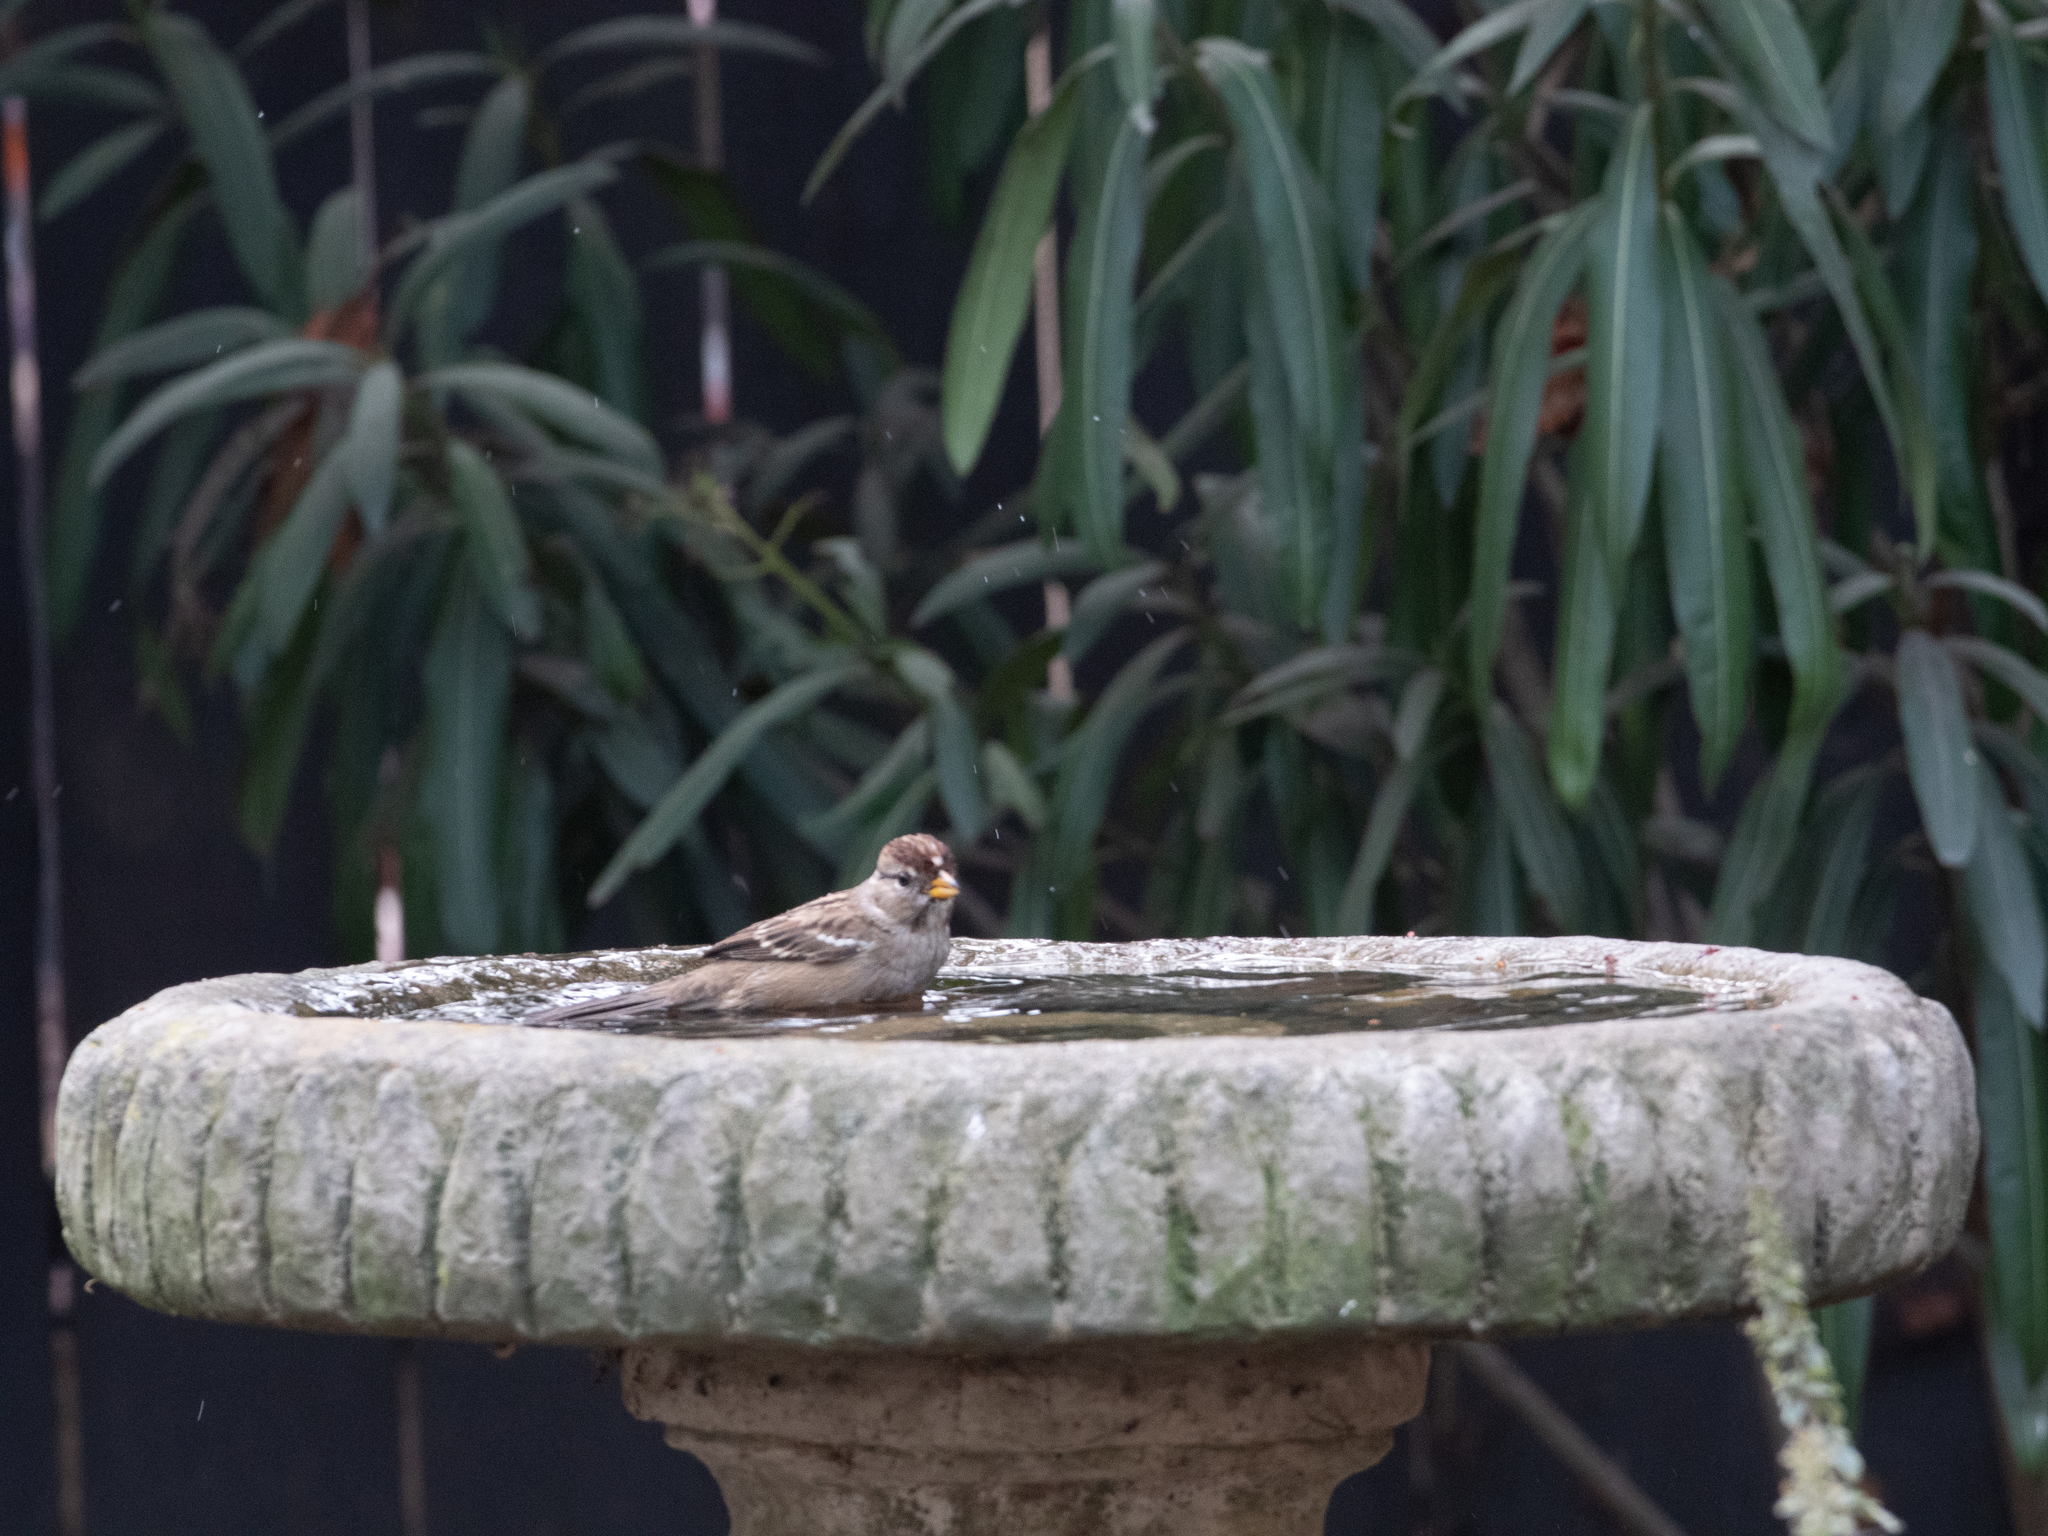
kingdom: Animalia
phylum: Chordata
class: Aves
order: Passeriformes
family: Passerellidae
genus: Zonotrichia
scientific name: Zonotrichia leucophrys
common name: White-crowned sparrow
